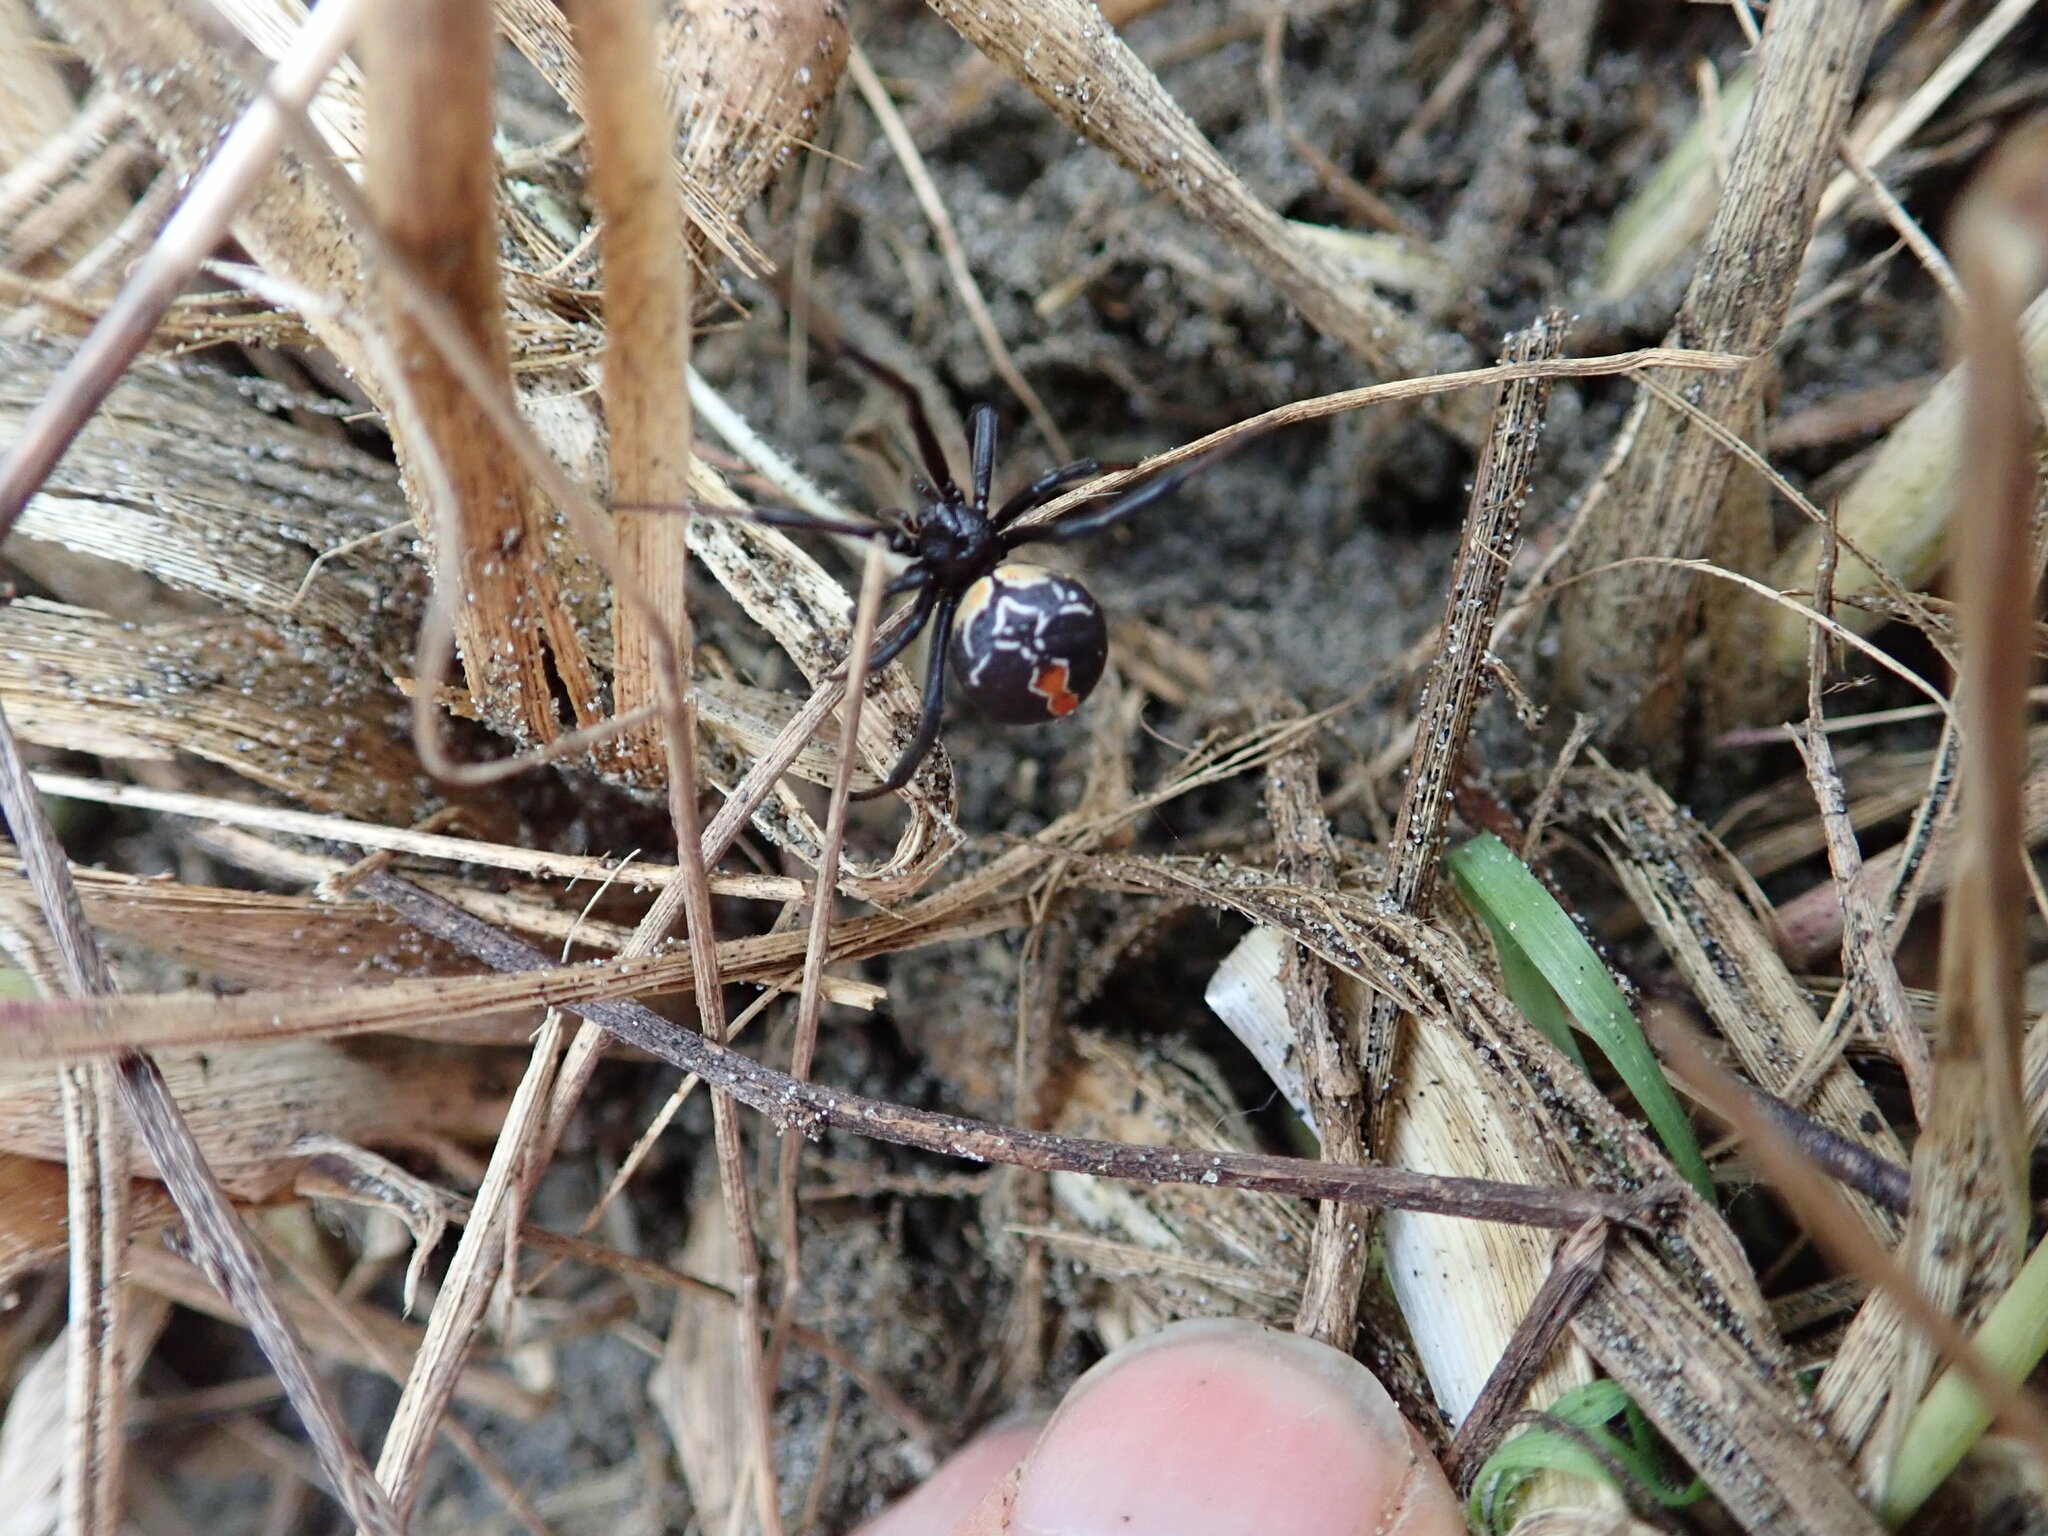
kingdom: Animalia
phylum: Arthropoda
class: Arachnida
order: Araneae
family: Theridiidae
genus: Latrodectus
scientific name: Latrodectus katipo
